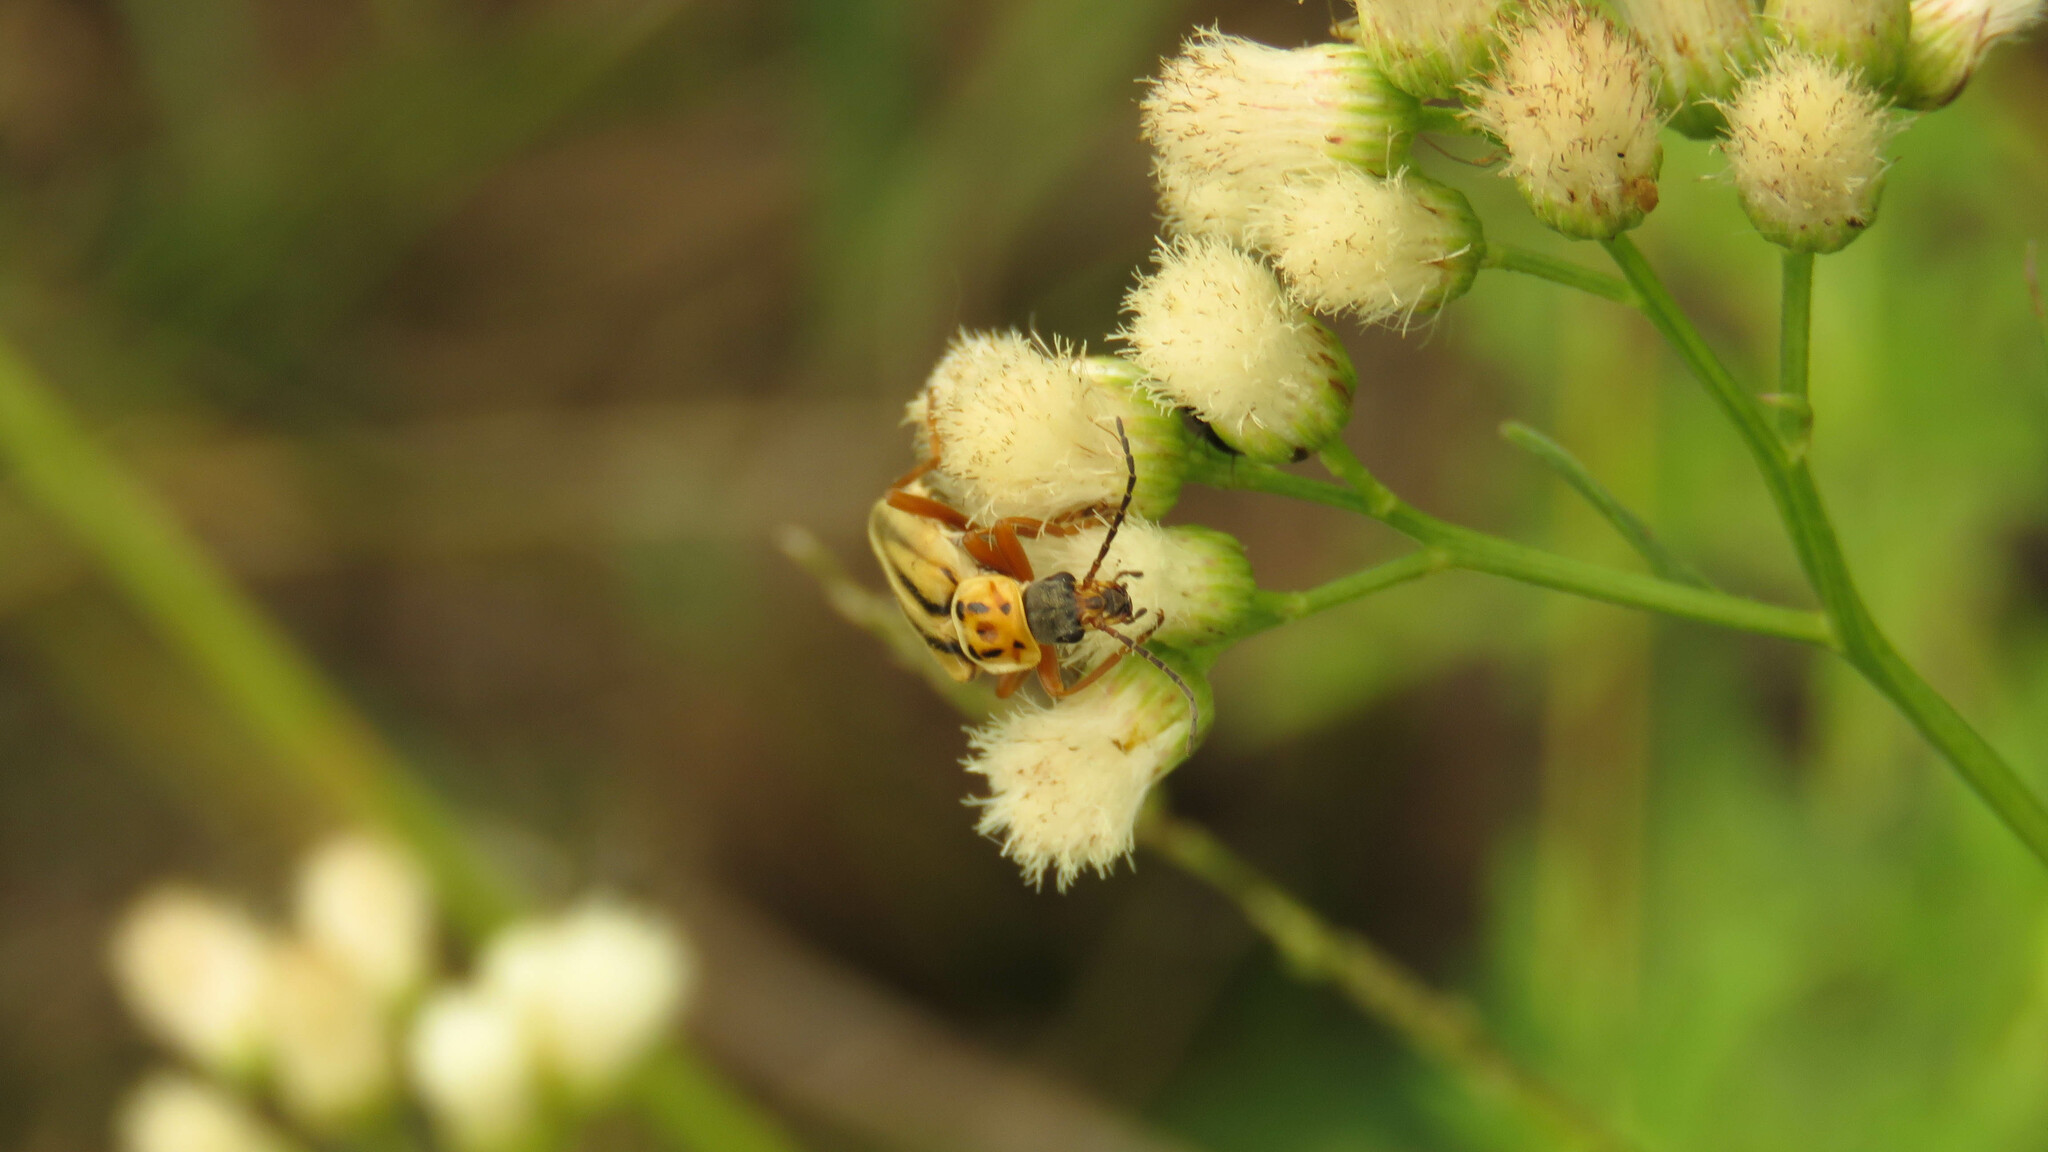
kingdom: Animalia
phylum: Arthropoda
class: Insecta
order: Coleoptera
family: Cantharidae
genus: Chauliognathus
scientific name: Chauliognathus
